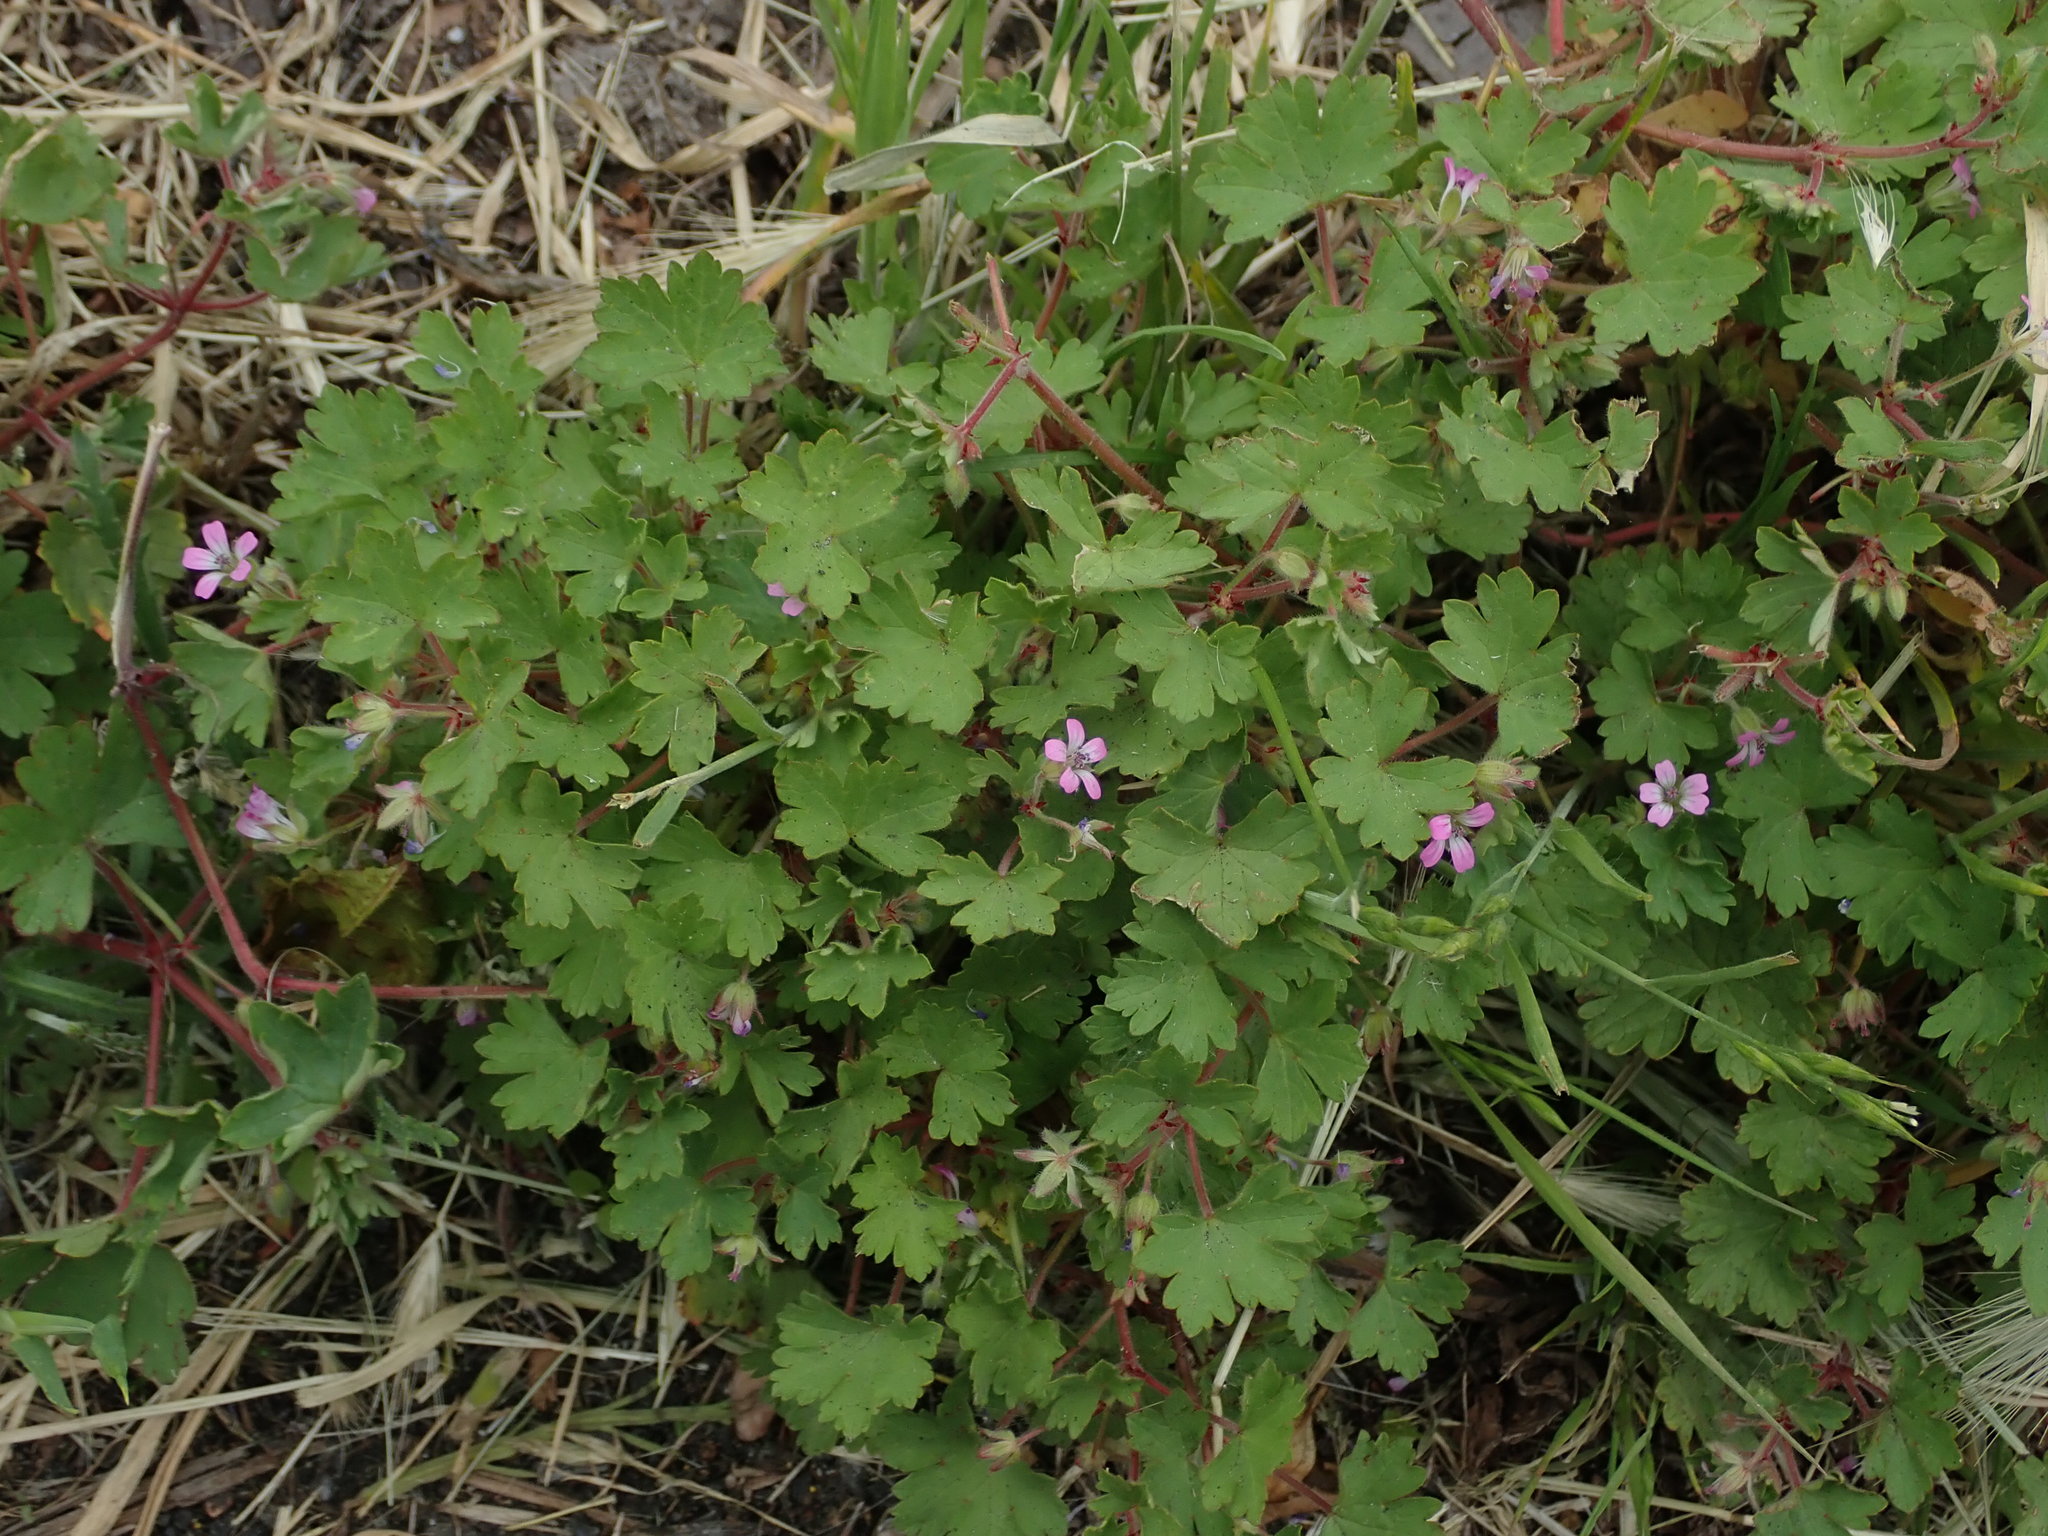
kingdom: Plantae
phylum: Tracheophyta
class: Magnoliopsida
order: Geraniales
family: Geraniaceae
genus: Geranium
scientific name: Geranium rotundifolium
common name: Round-leaved crane's-bill
